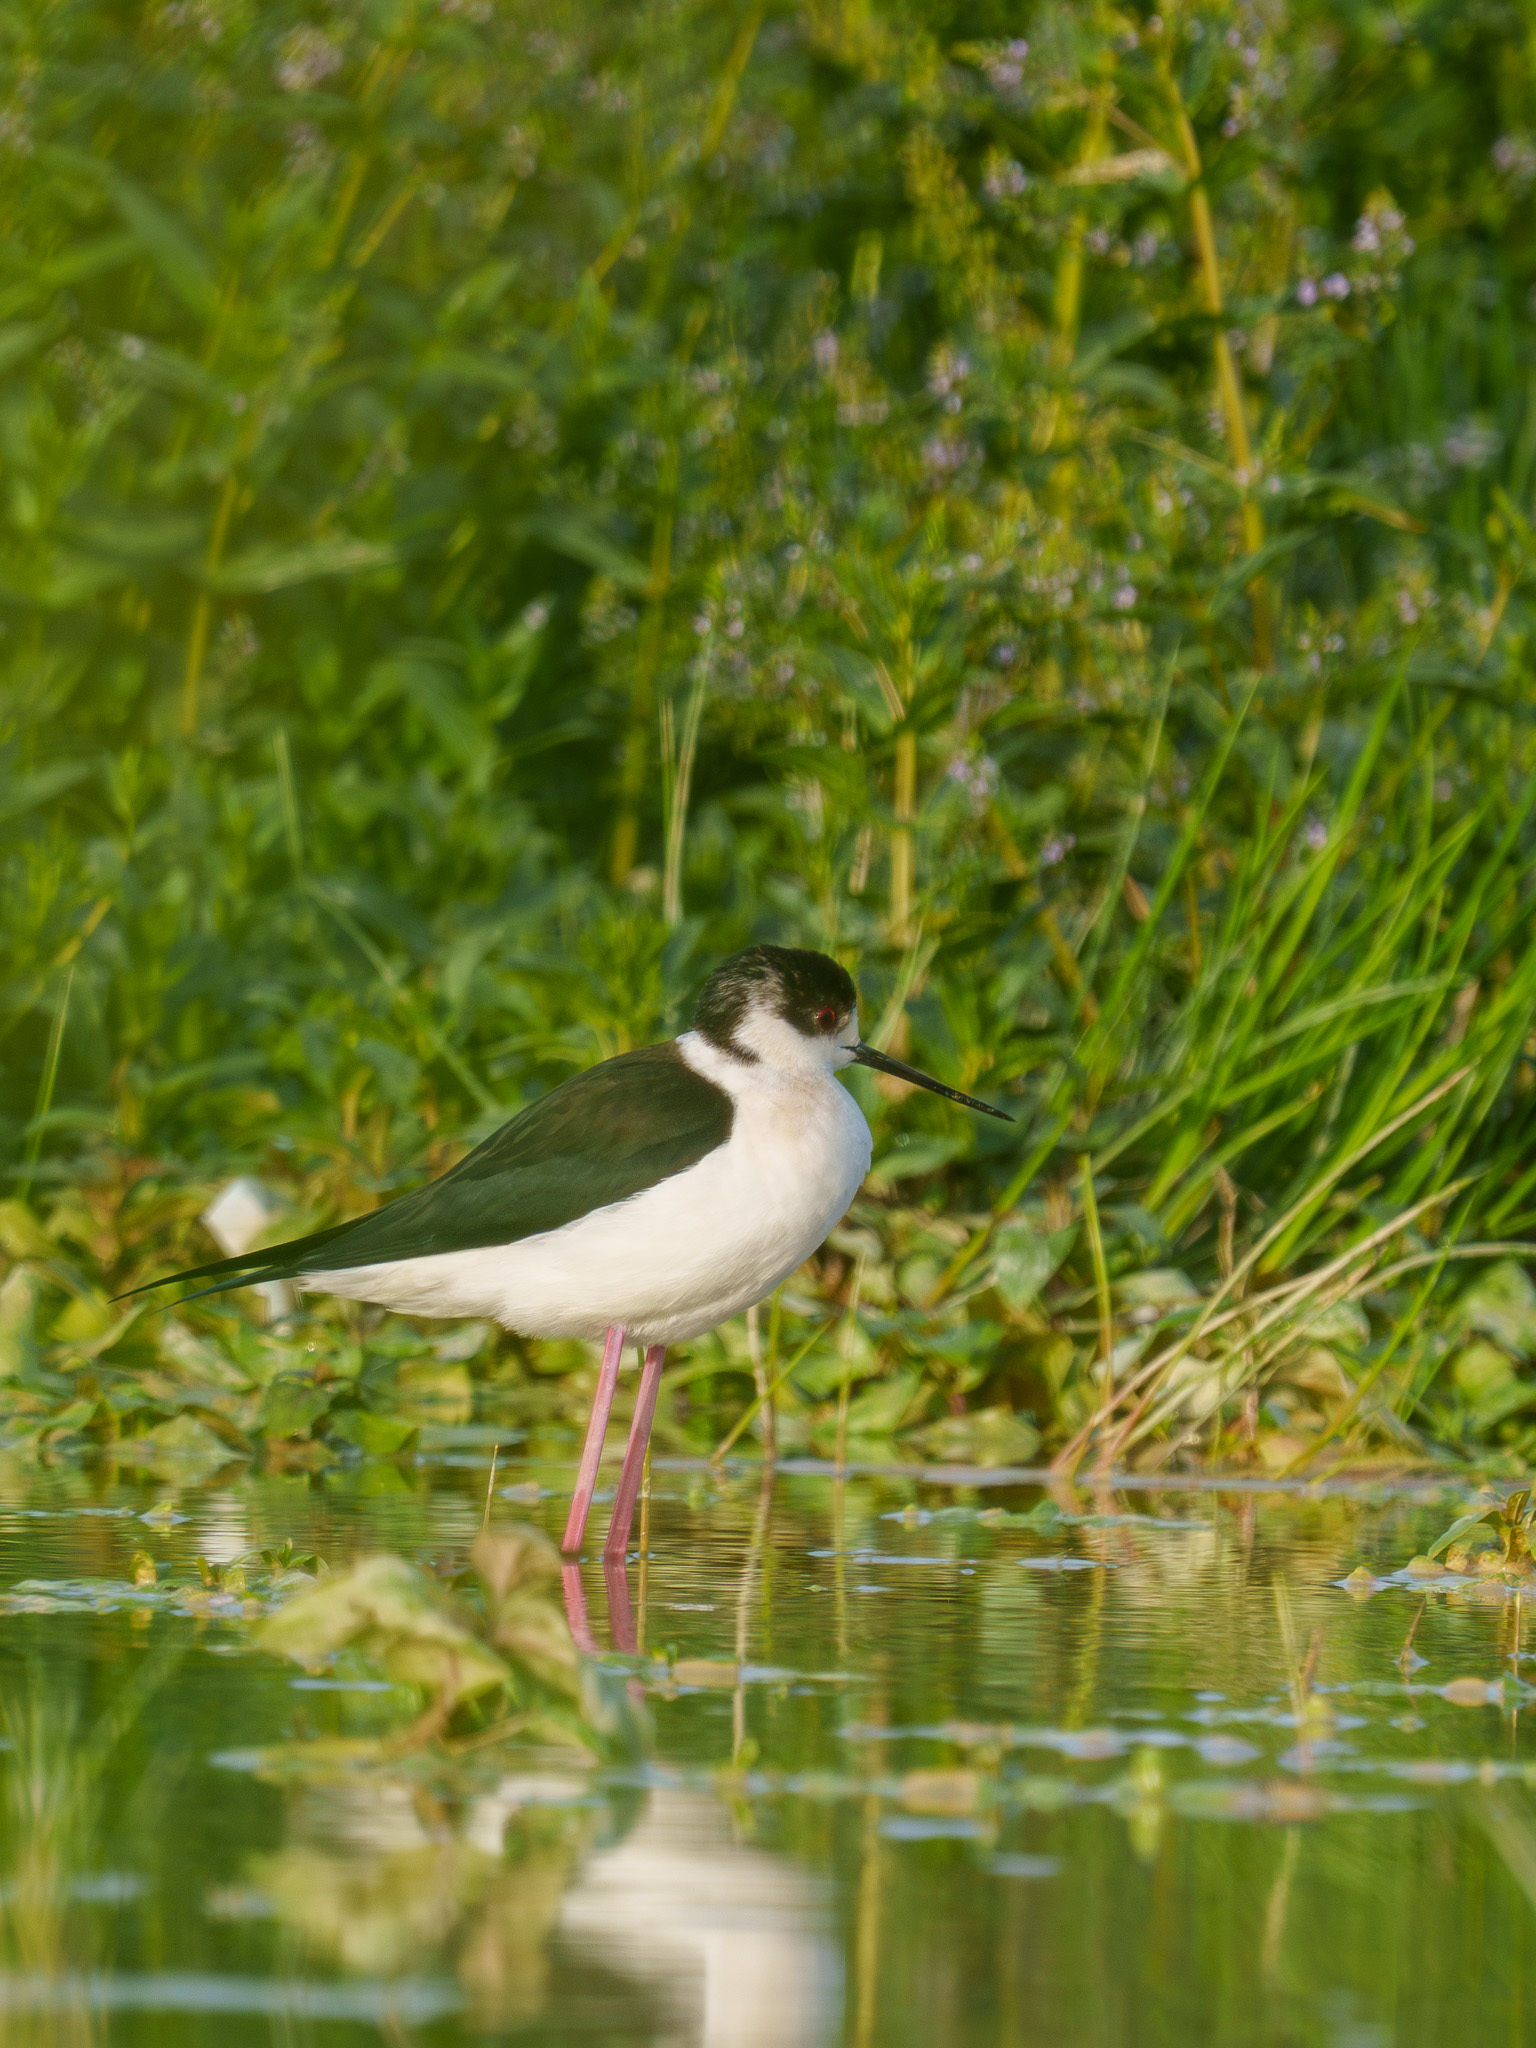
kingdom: Animalia
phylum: Chordata
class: Aves
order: Charadriiformes
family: Recurvirostridae
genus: Himantopus
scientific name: Himantopus himantopus
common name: Black-winged stilt
